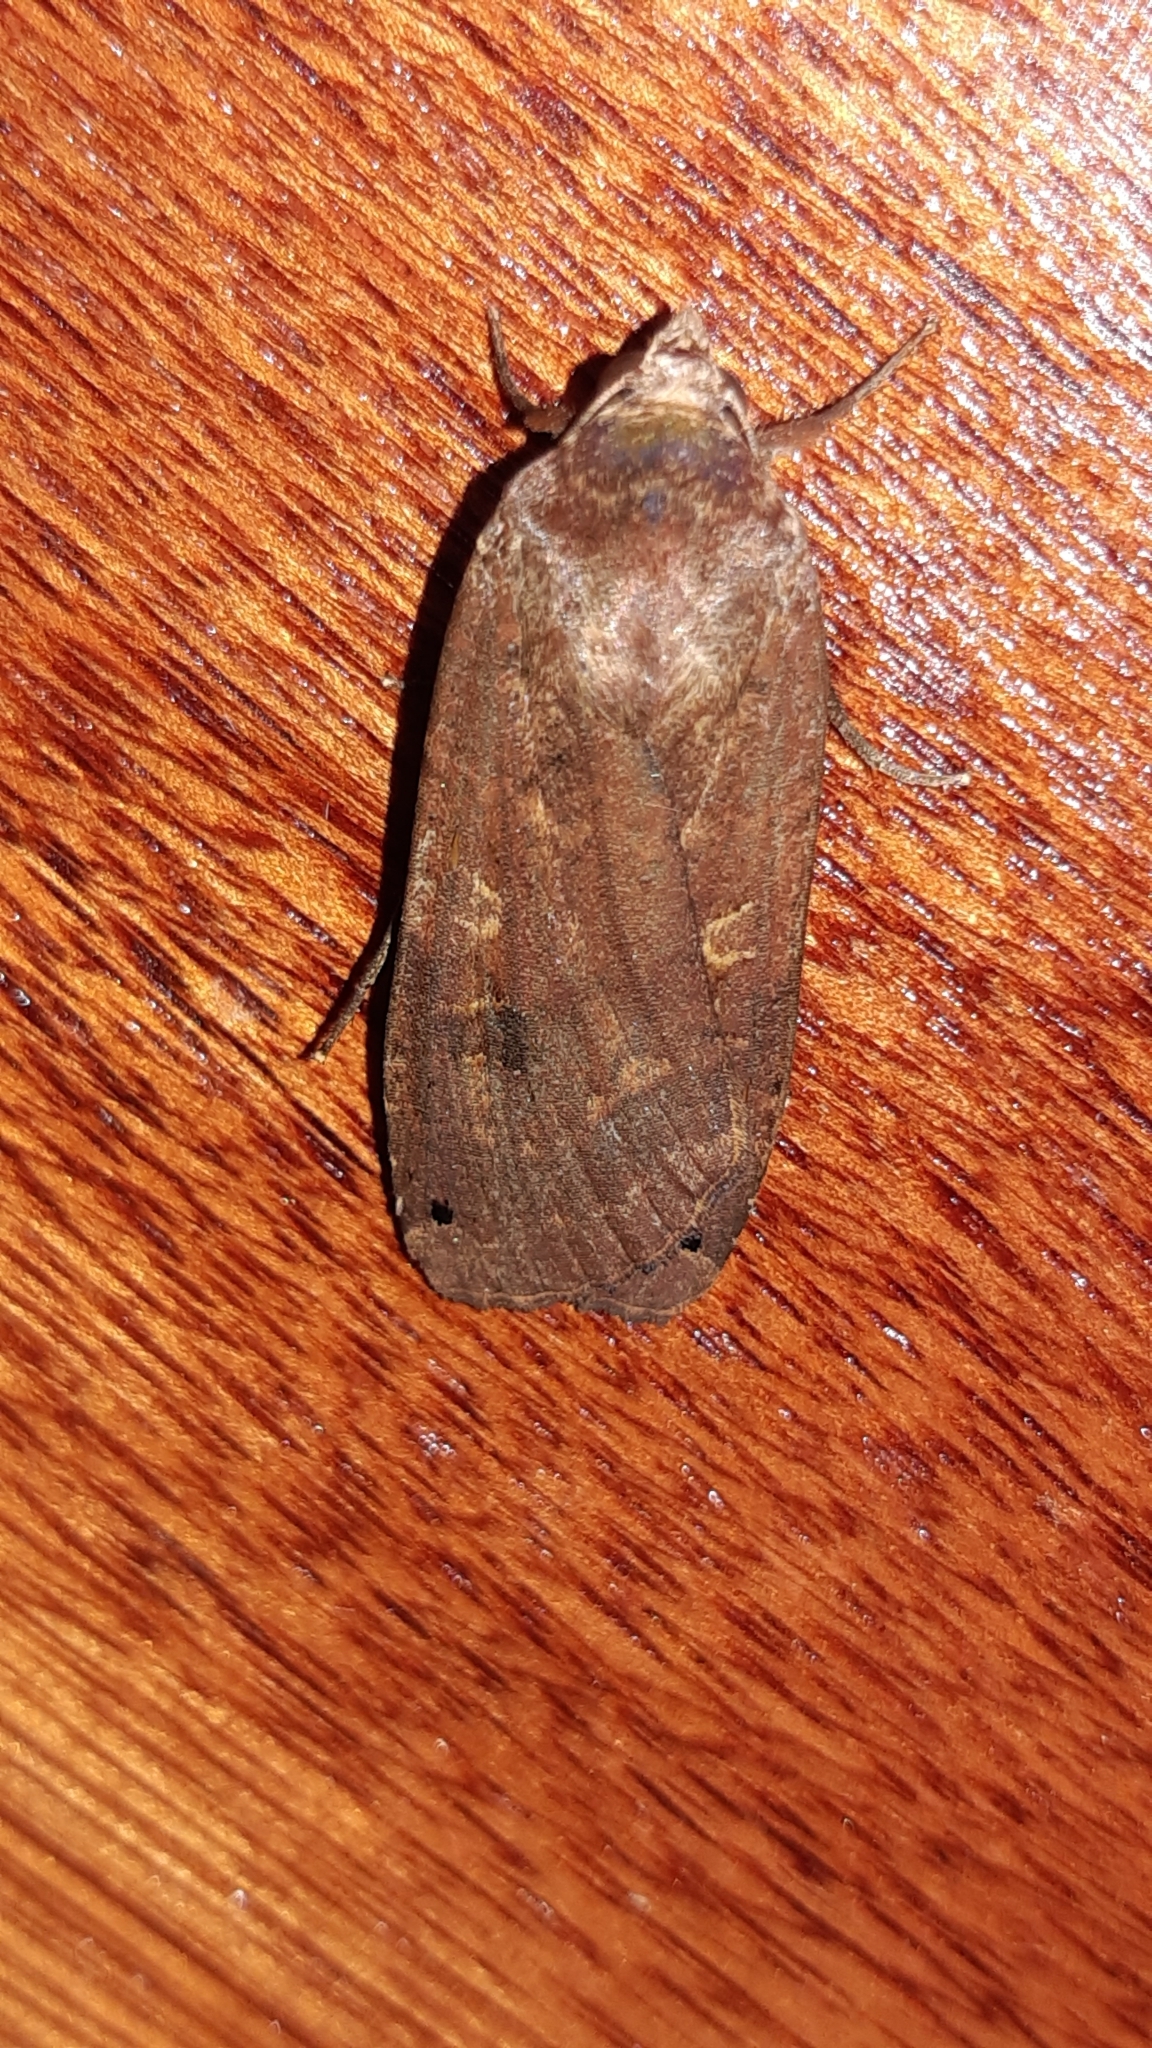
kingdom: Animalia
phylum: Arthropoda
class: Insecta
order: Lepidoptera
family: Noctuidae
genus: Noctua
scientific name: Noctua pronuba
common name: Large yellow underwing
